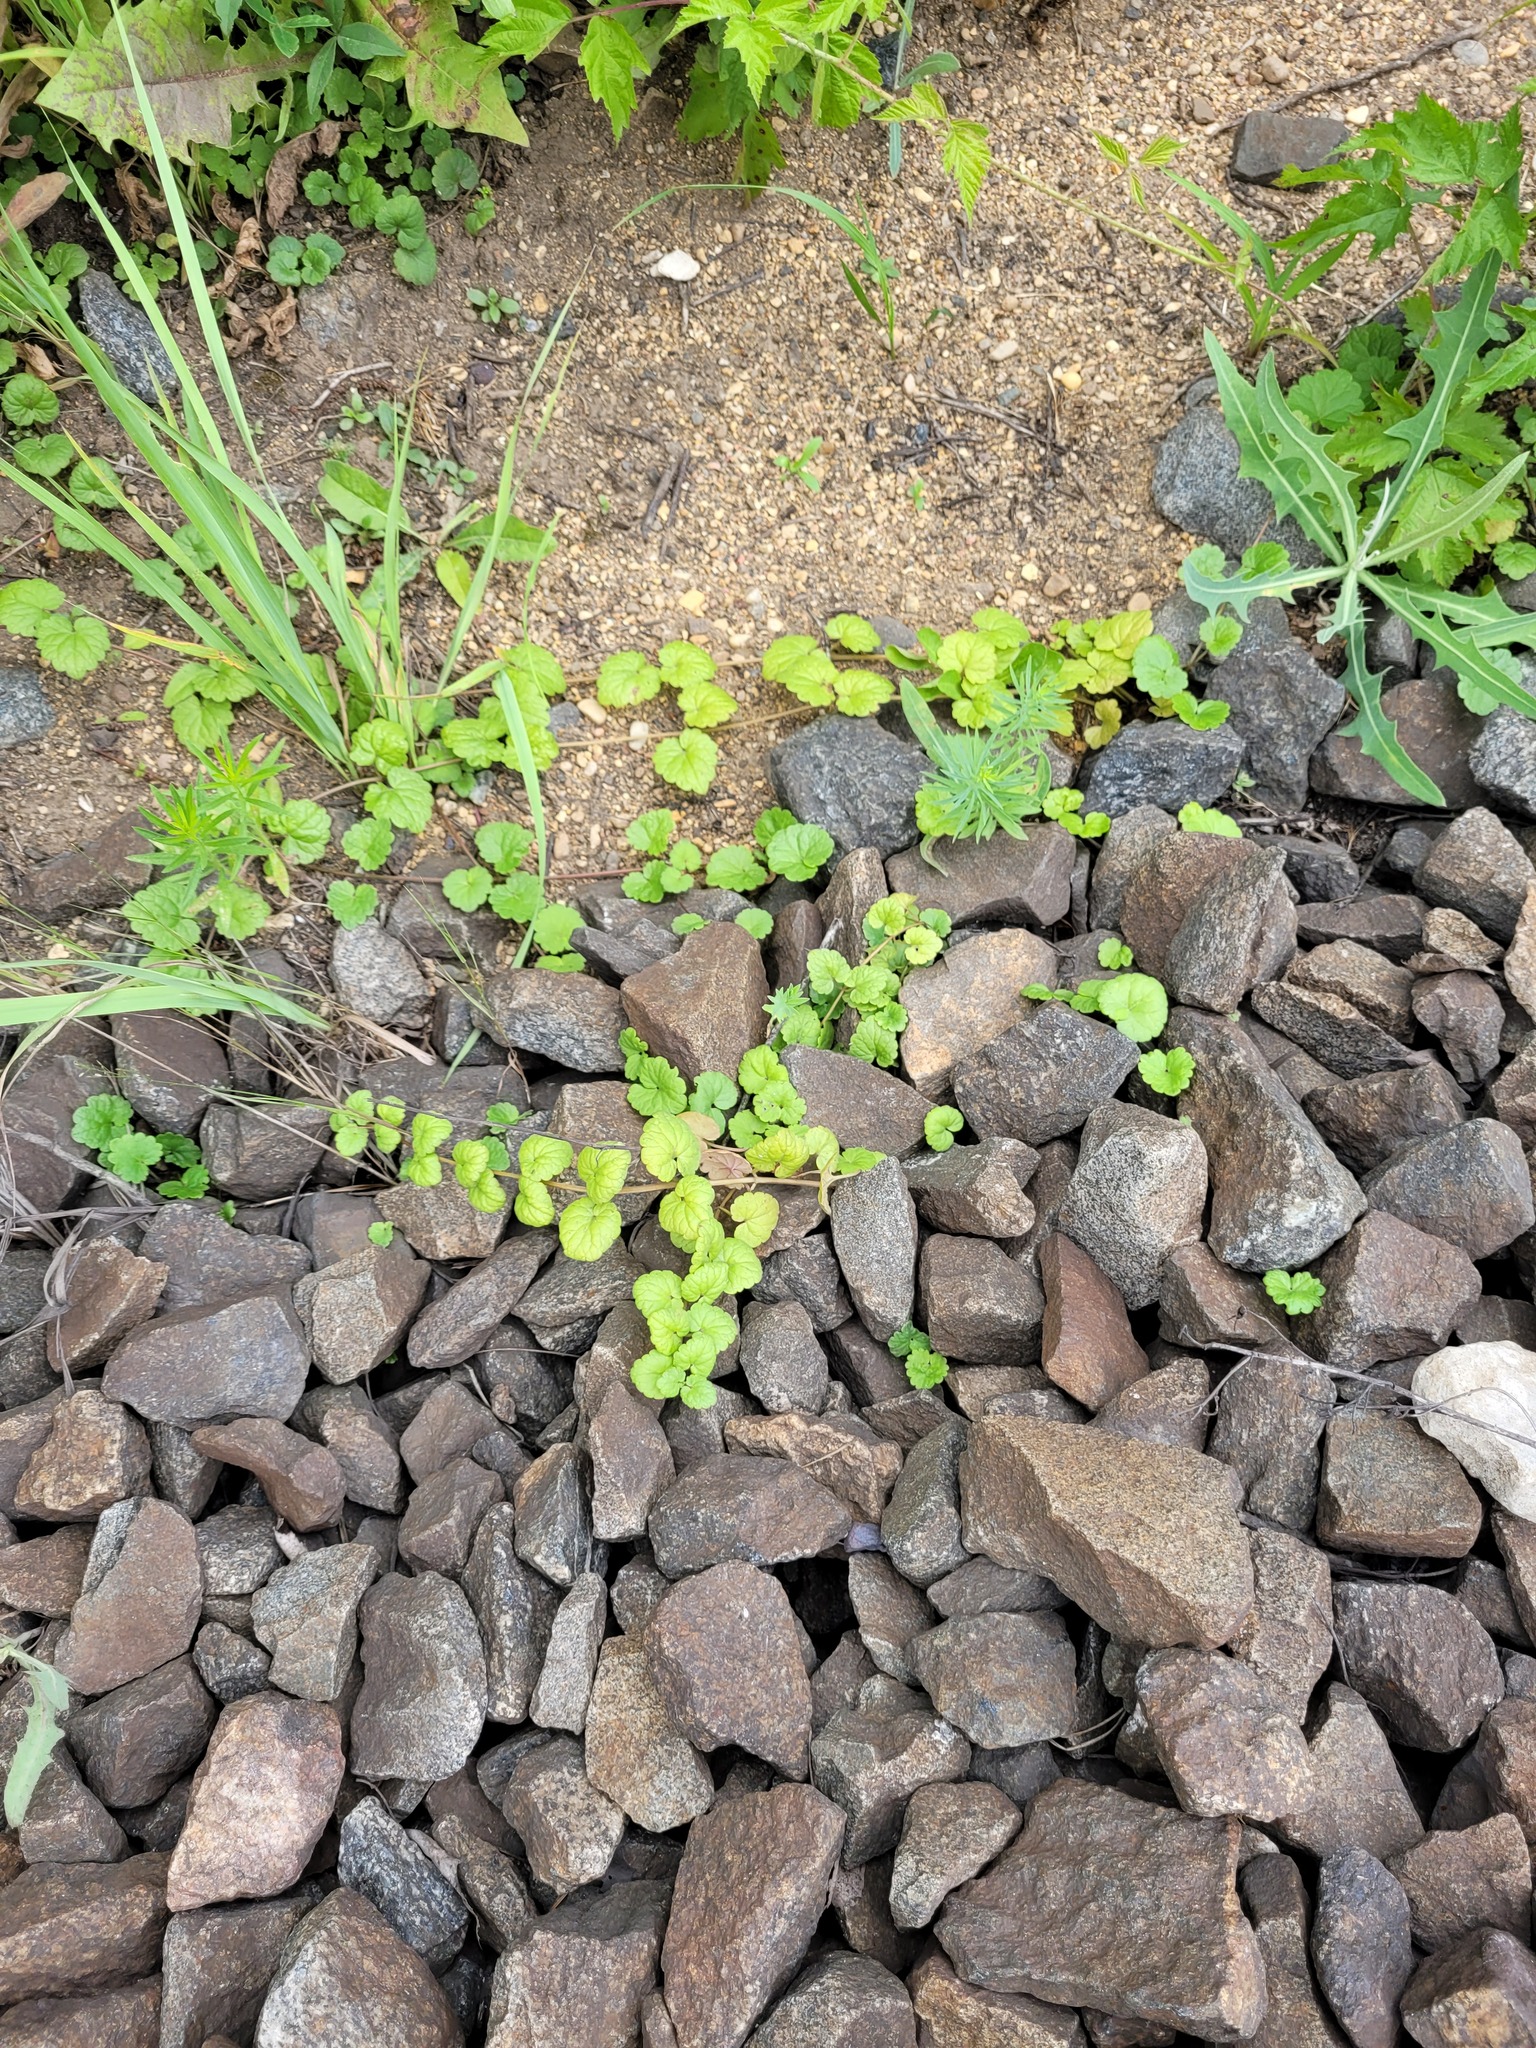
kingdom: Plantae
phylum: Tracheophyta
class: Magnoliopsida
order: Lamiales
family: Lamiaceae
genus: Glechoma
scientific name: Glechoma hederacea
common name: Ground ivy
